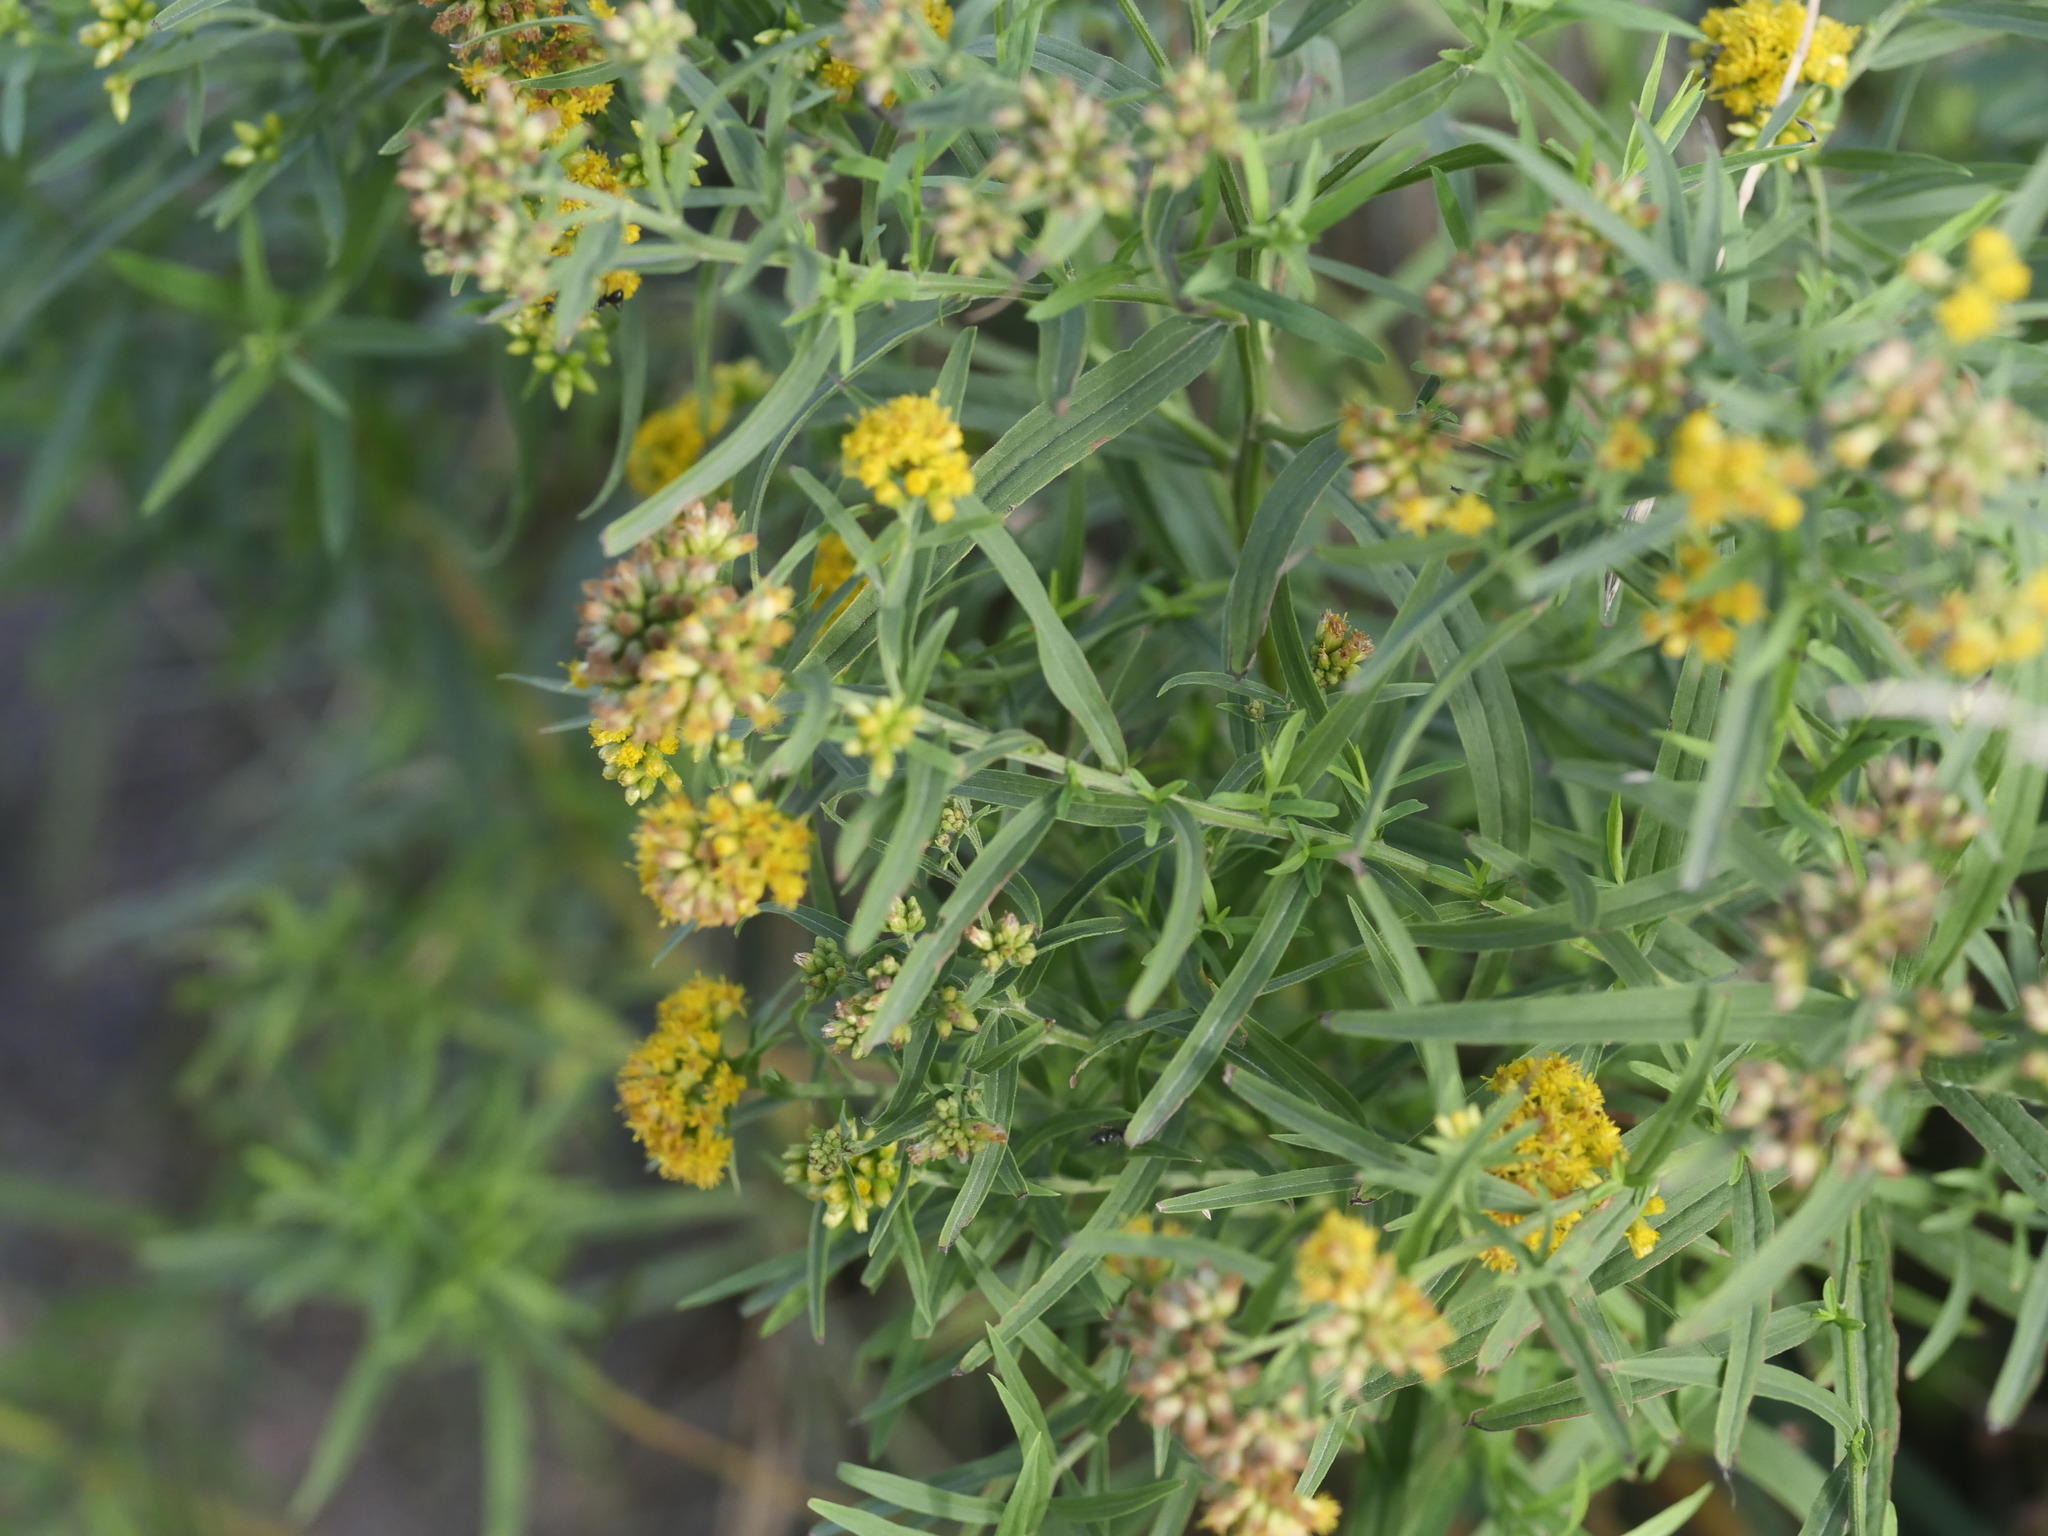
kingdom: Plantae
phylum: Tracheophyta
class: Magnoliopsida
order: Asterales
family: Asteraceae
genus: Euthamia
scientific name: Euthamia graminifolia
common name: Common goldentop
